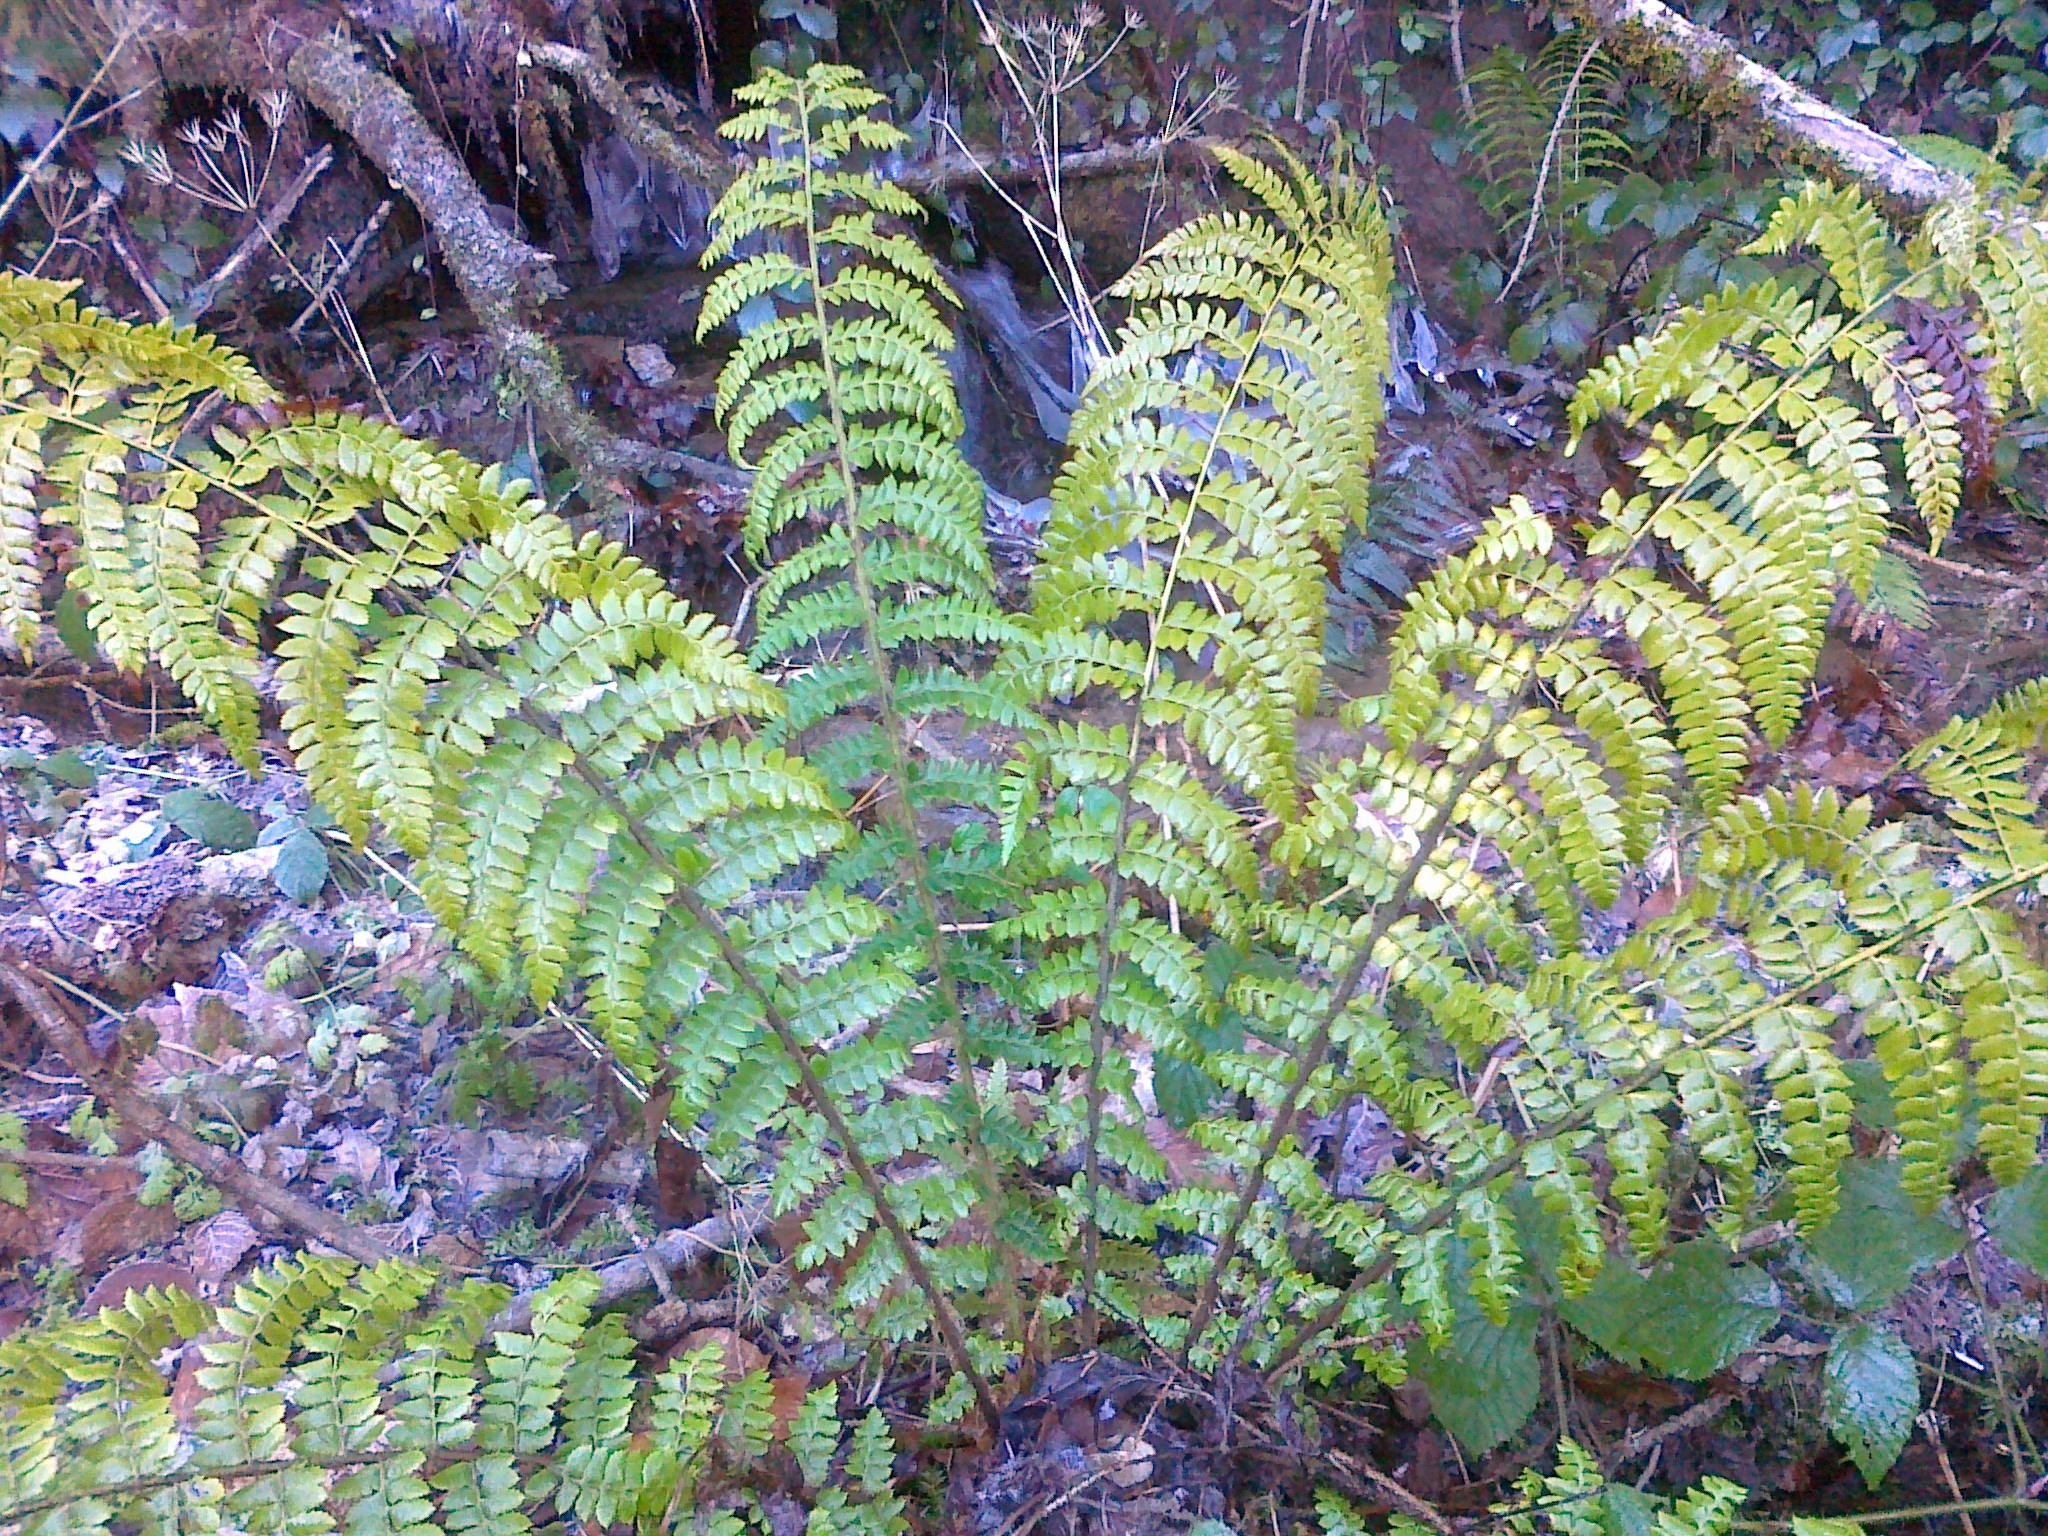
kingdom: Plantae
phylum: Tracheophyta
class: Polypodiopsida
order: Polypodiales
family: Dryopteridaceae
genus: Polystichum
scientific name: Polystichum braunii
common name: Braun's holly fern
